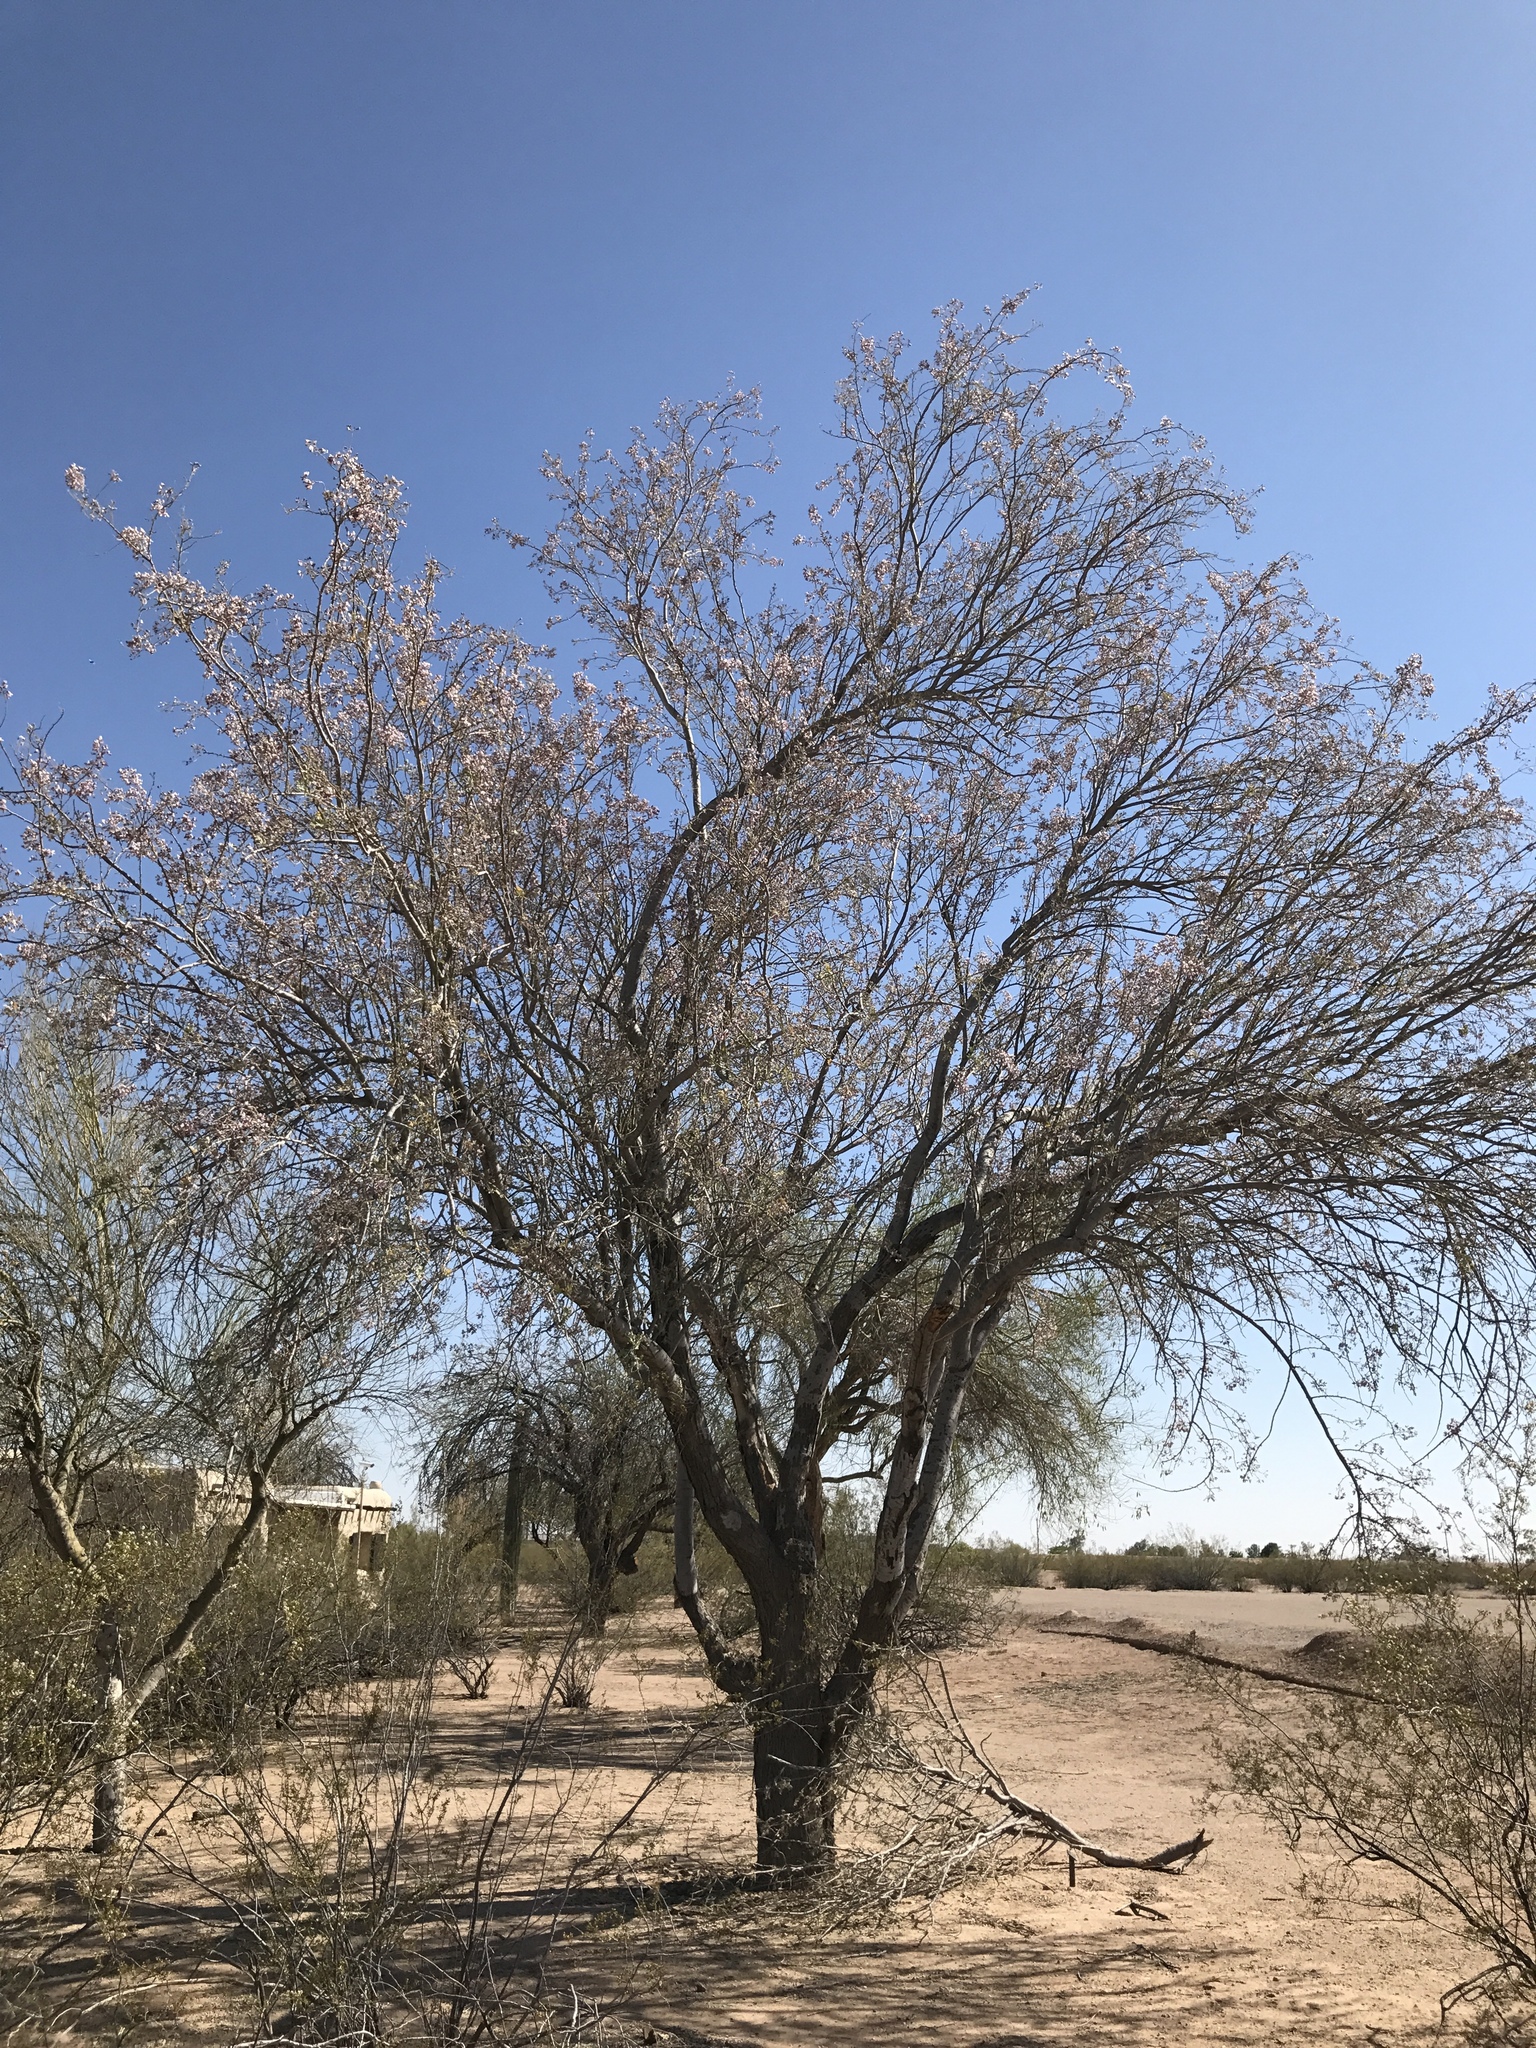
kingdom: Plantae
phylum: Tracheophyta
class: Magnoliopsida
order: Fabales
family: Fabaceae
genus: Olneya
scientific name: Olneya tesota
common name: Desert ironwood
